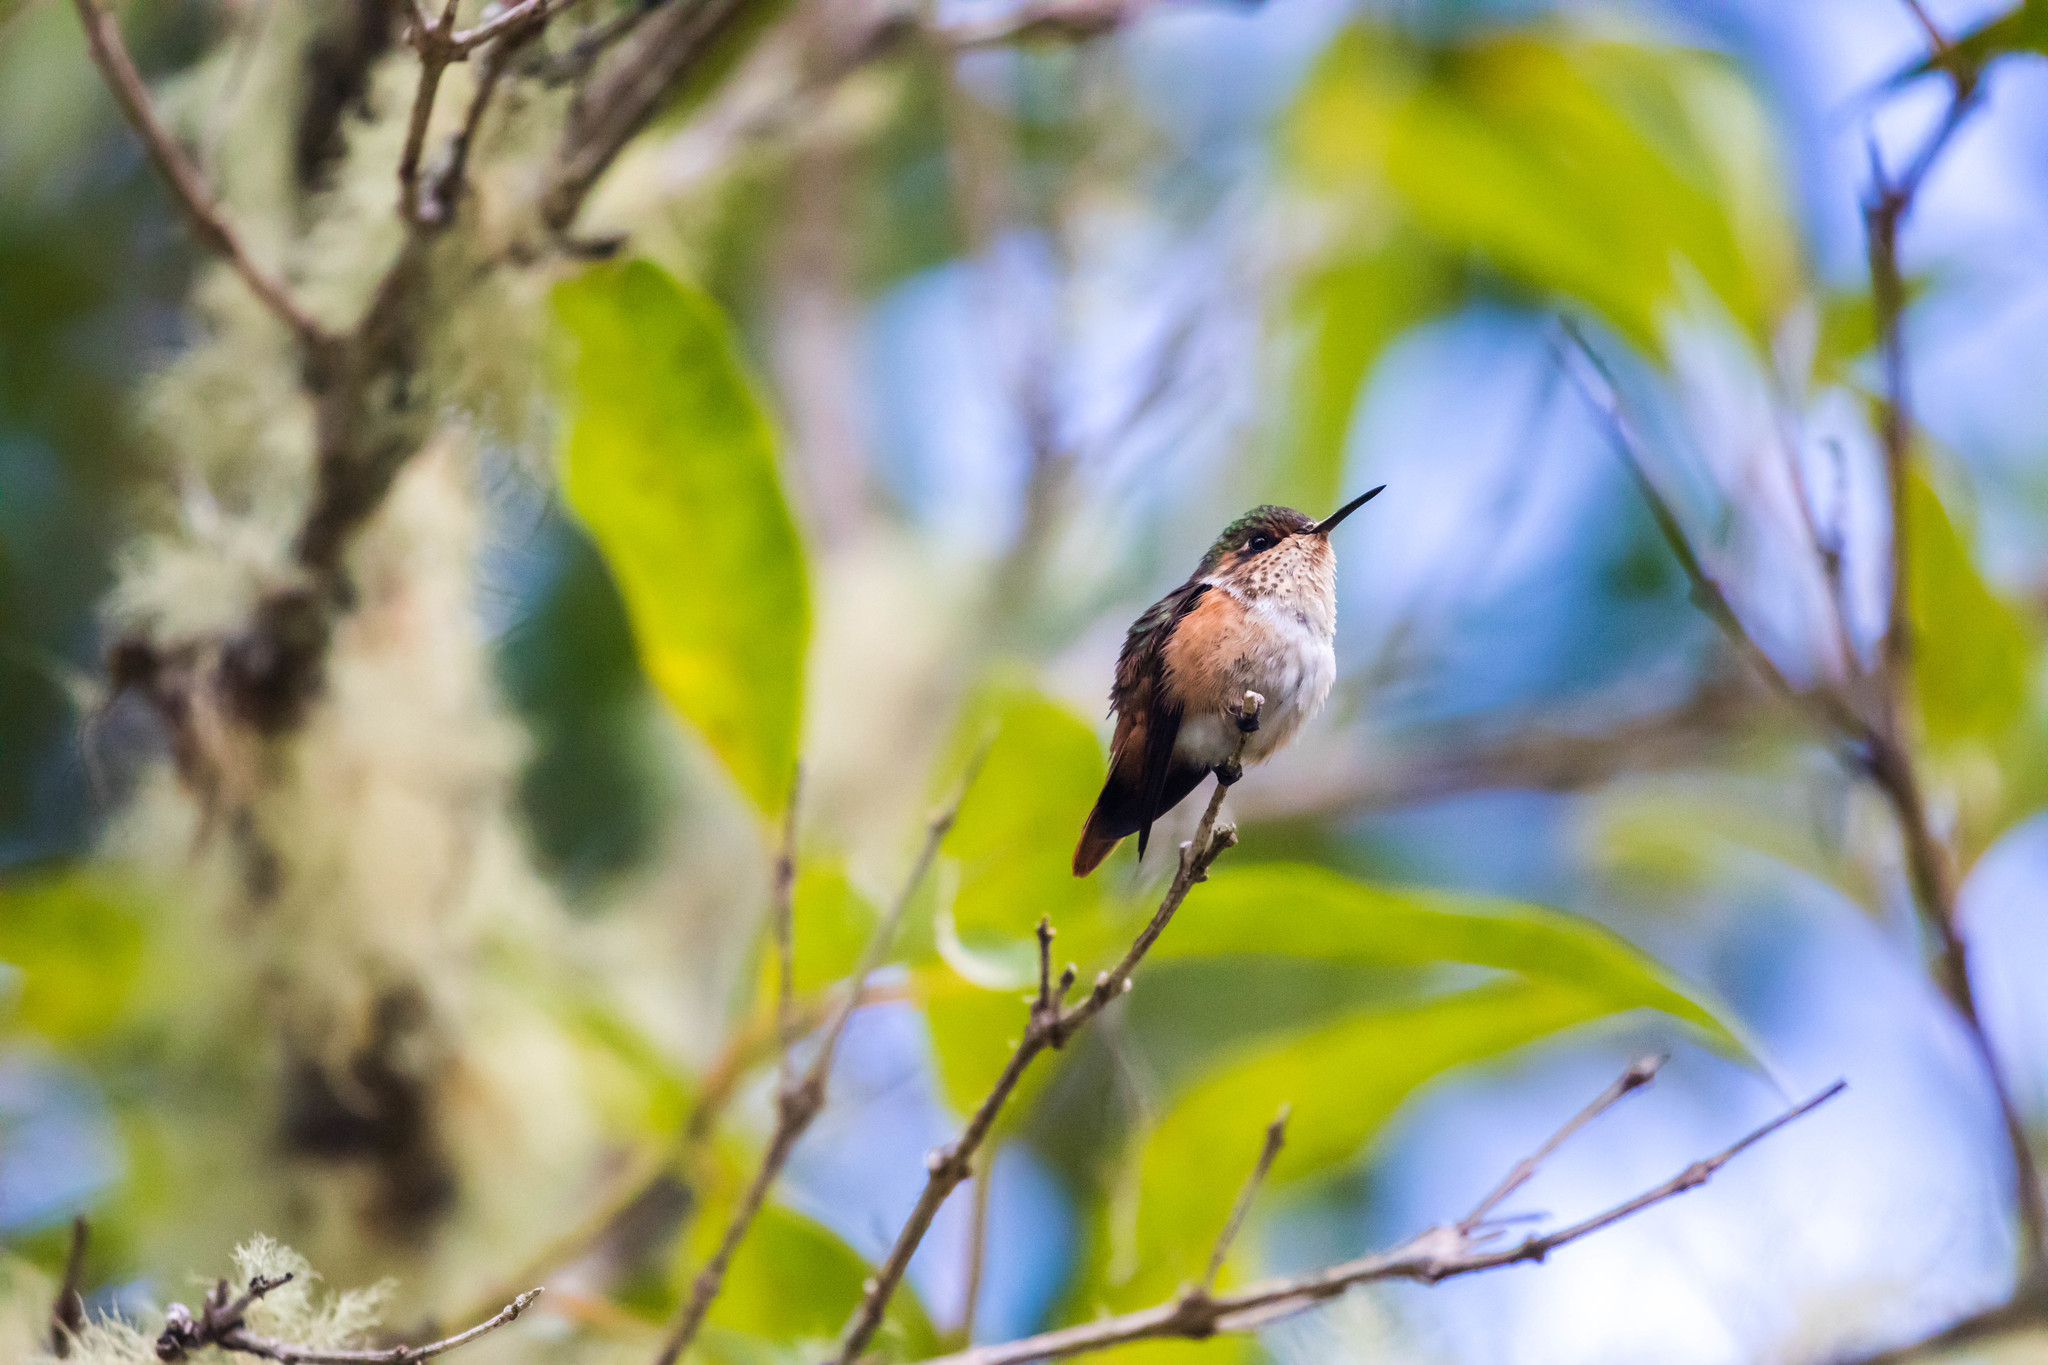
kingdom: Animalia
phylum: Chordata
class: Aves
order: Apodiformes
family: Trochilidae
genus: Selasphorus
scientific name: Selasphorus scintilla
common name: Scintillant hummingbird
